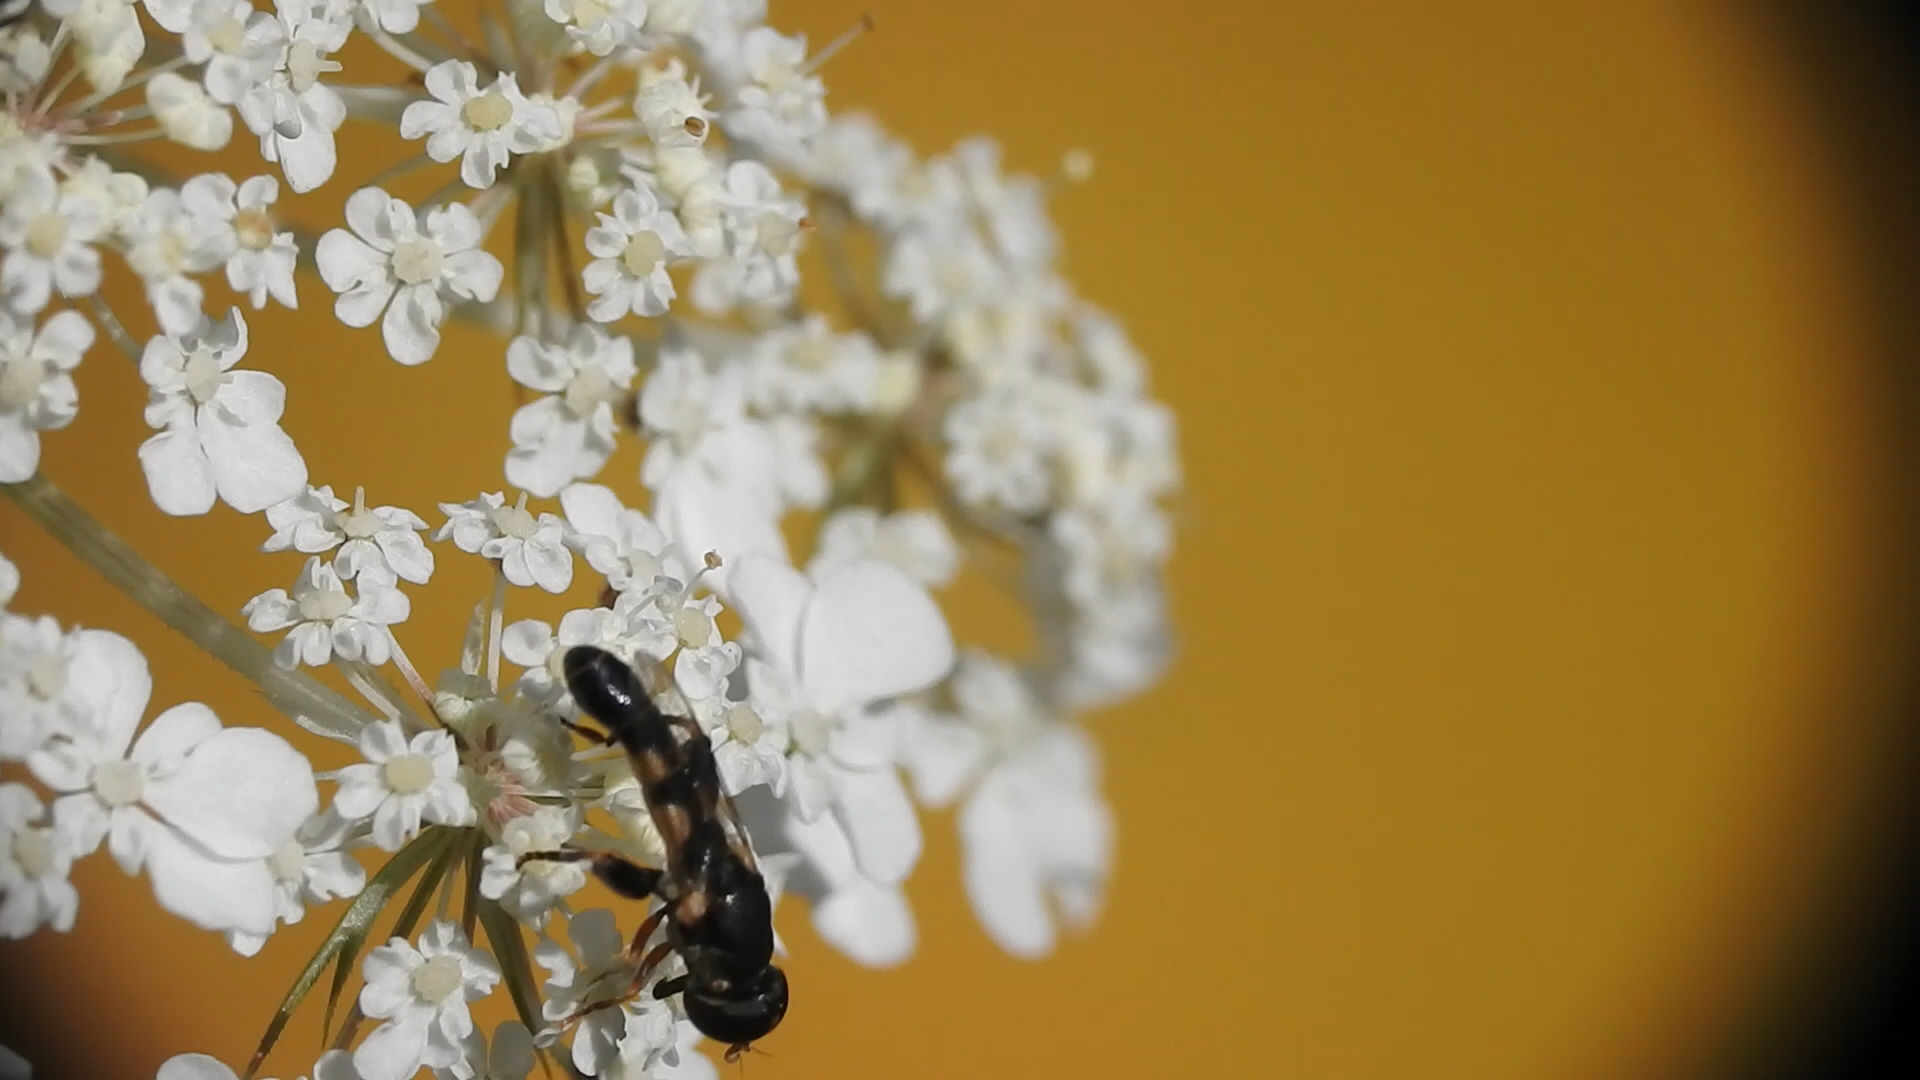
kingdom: Animalia
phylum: Arthropoda
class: Insecta
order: Diptera
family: Syrphidae
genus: Syritta
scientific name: Syritta pipiens
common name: Hover fly
